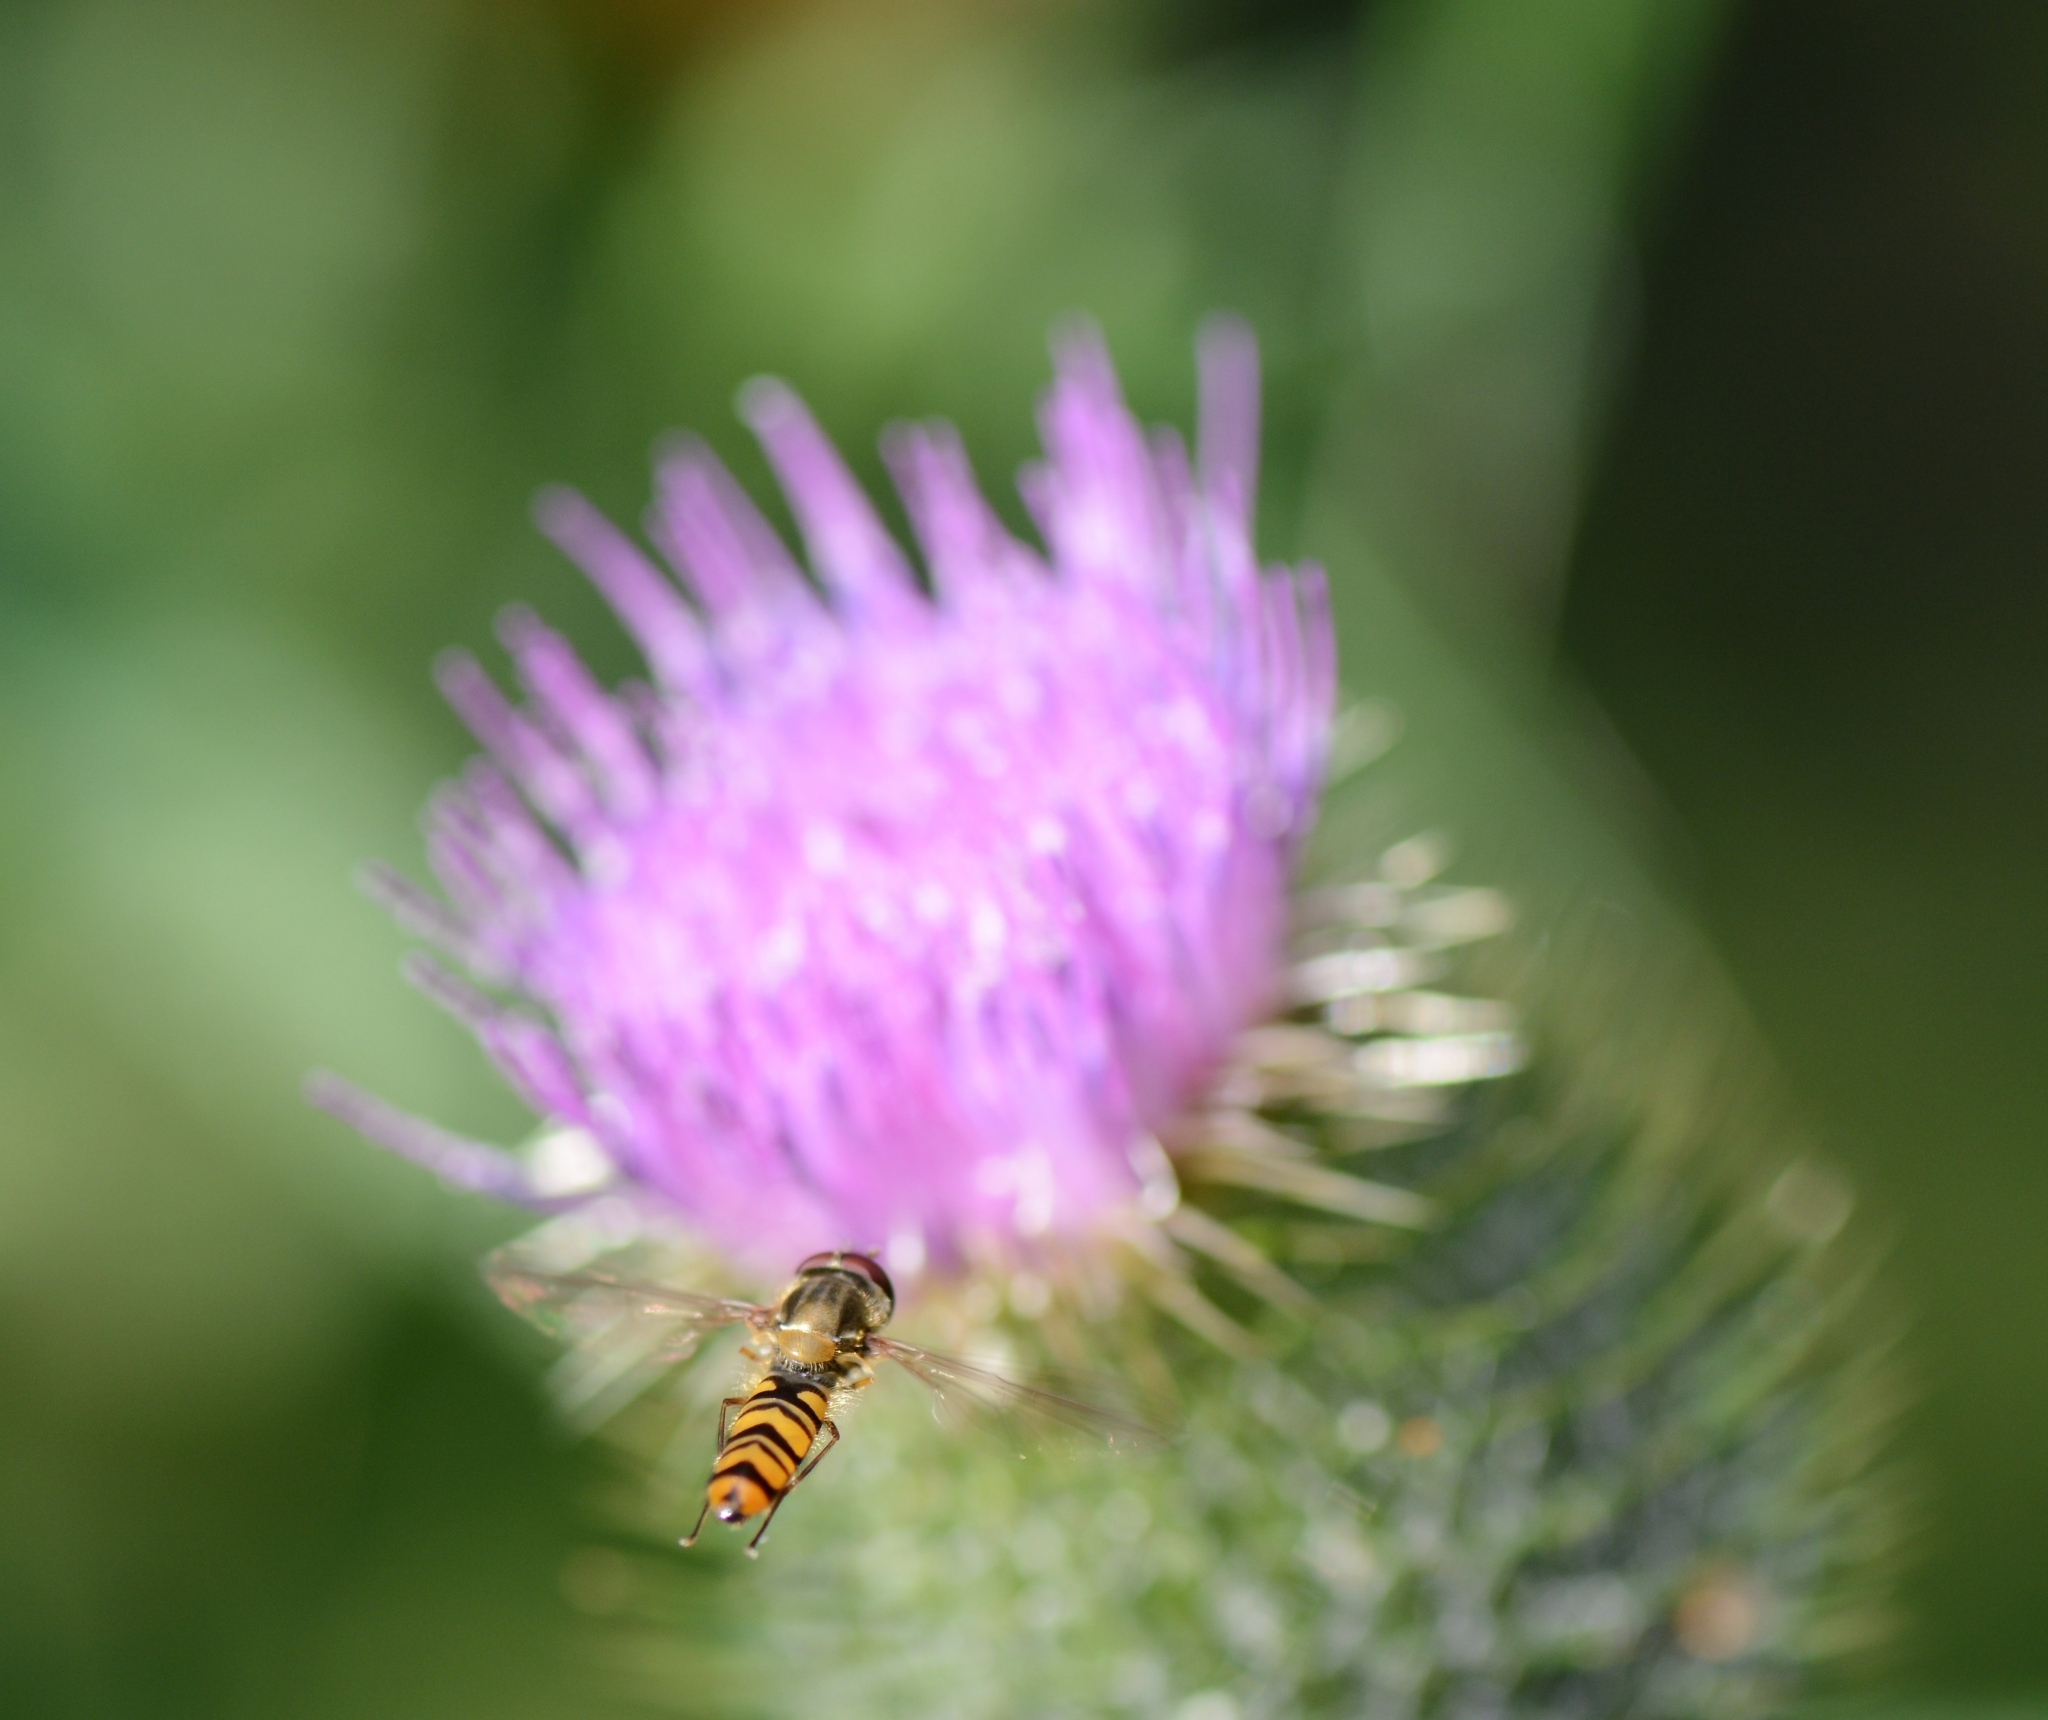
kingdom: Animalia
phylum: Arthropoda
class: Insecta
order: Diptera
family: Syrphidae
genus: Episyrphus
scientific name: Episyrphus balteatus
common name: Marmalade hoverfly
